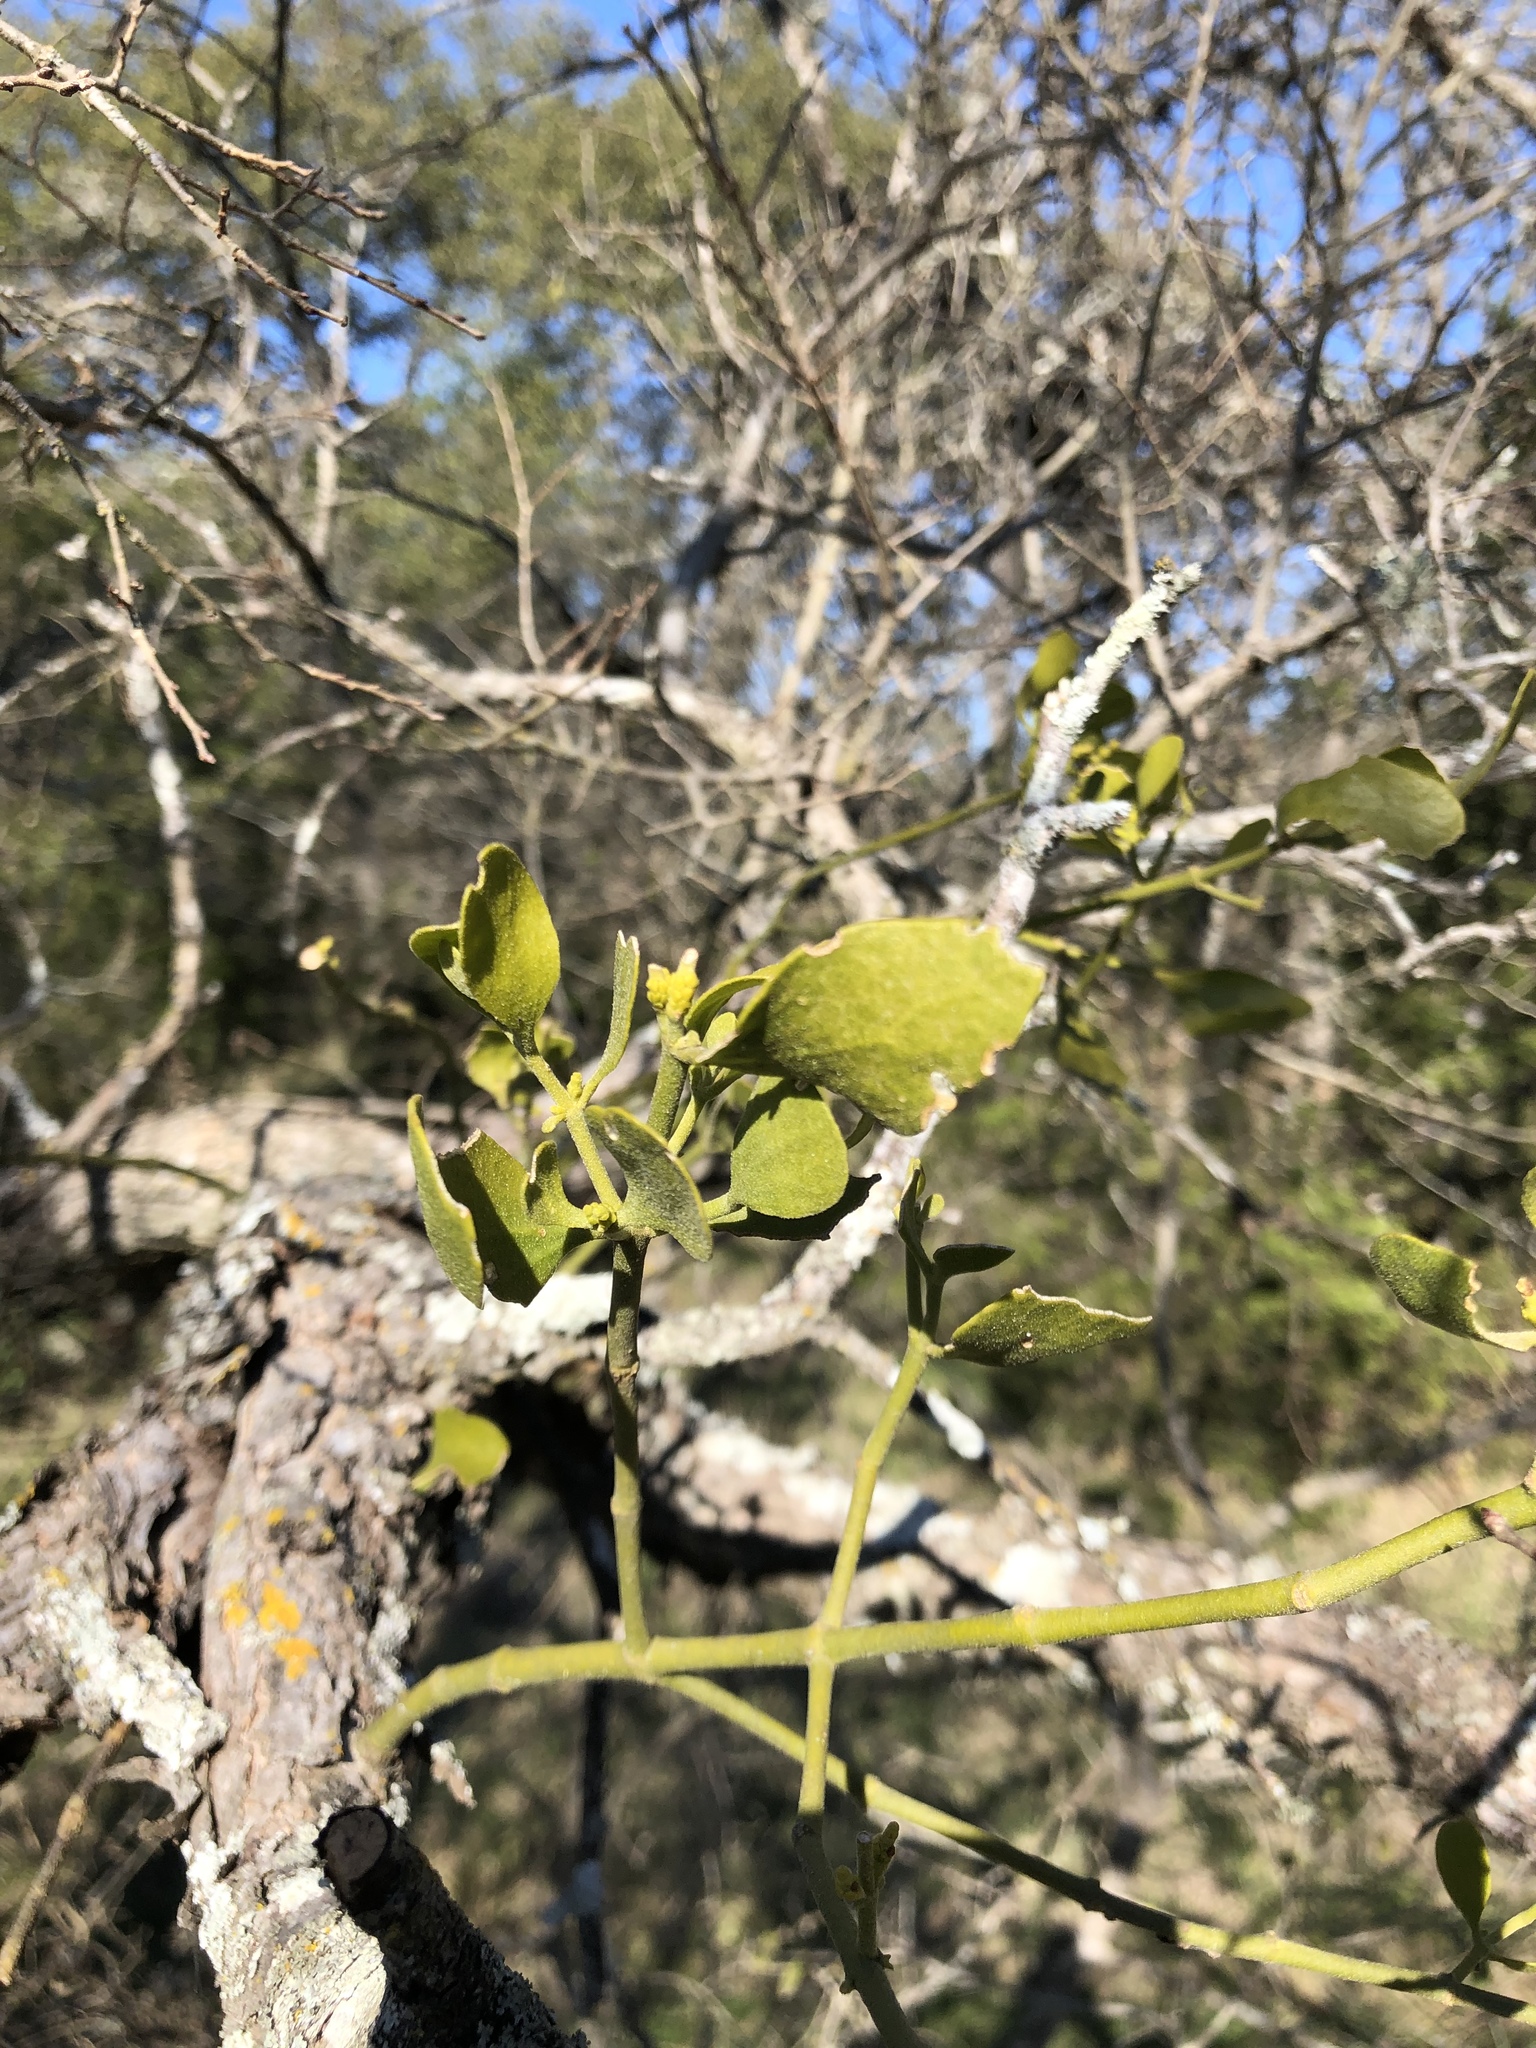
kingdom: Plantae
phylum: Tracheophyta
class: Magnoliopsida
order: Santalales
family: Viscaceae
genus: Phoradendron
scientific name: Phoradendron leucarpum
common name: Pacific mistletoe
